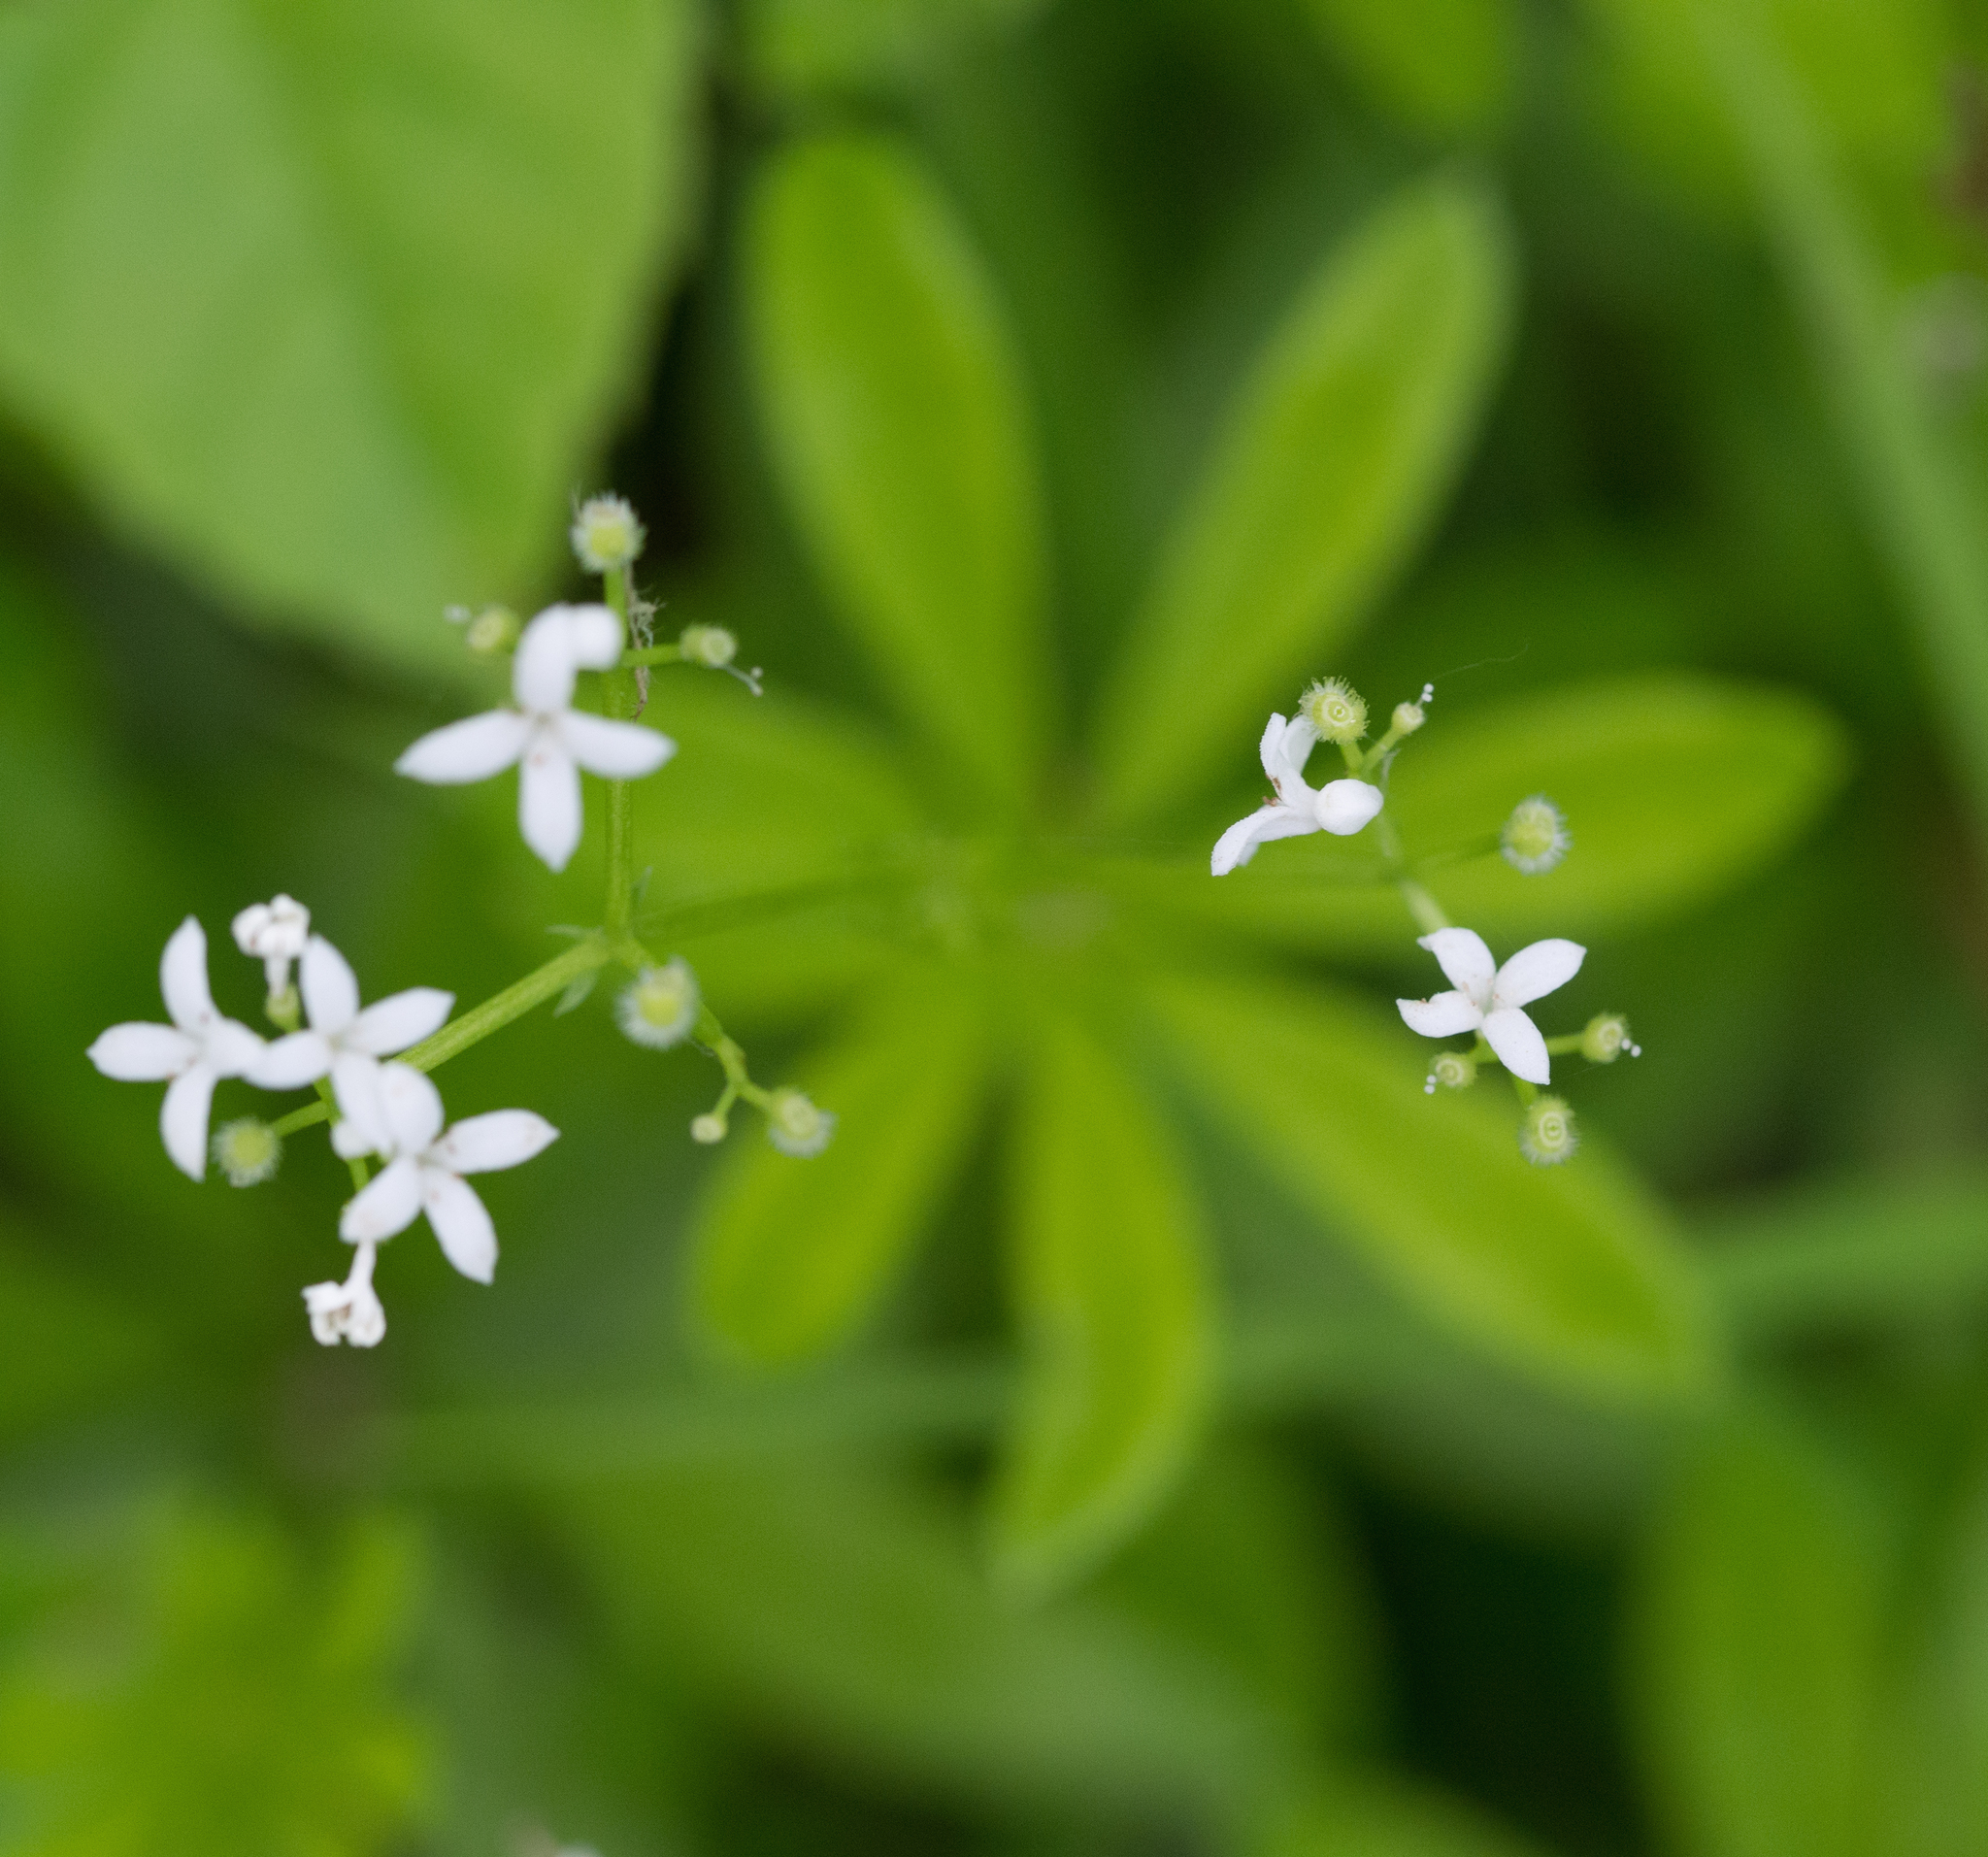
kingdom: Plantae
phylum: Tracheophyta
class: Magnoliopsida
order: Gentianales
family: Rubiaceae
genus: Galium
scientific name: Galium odoratum
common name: Sweet woodruff
